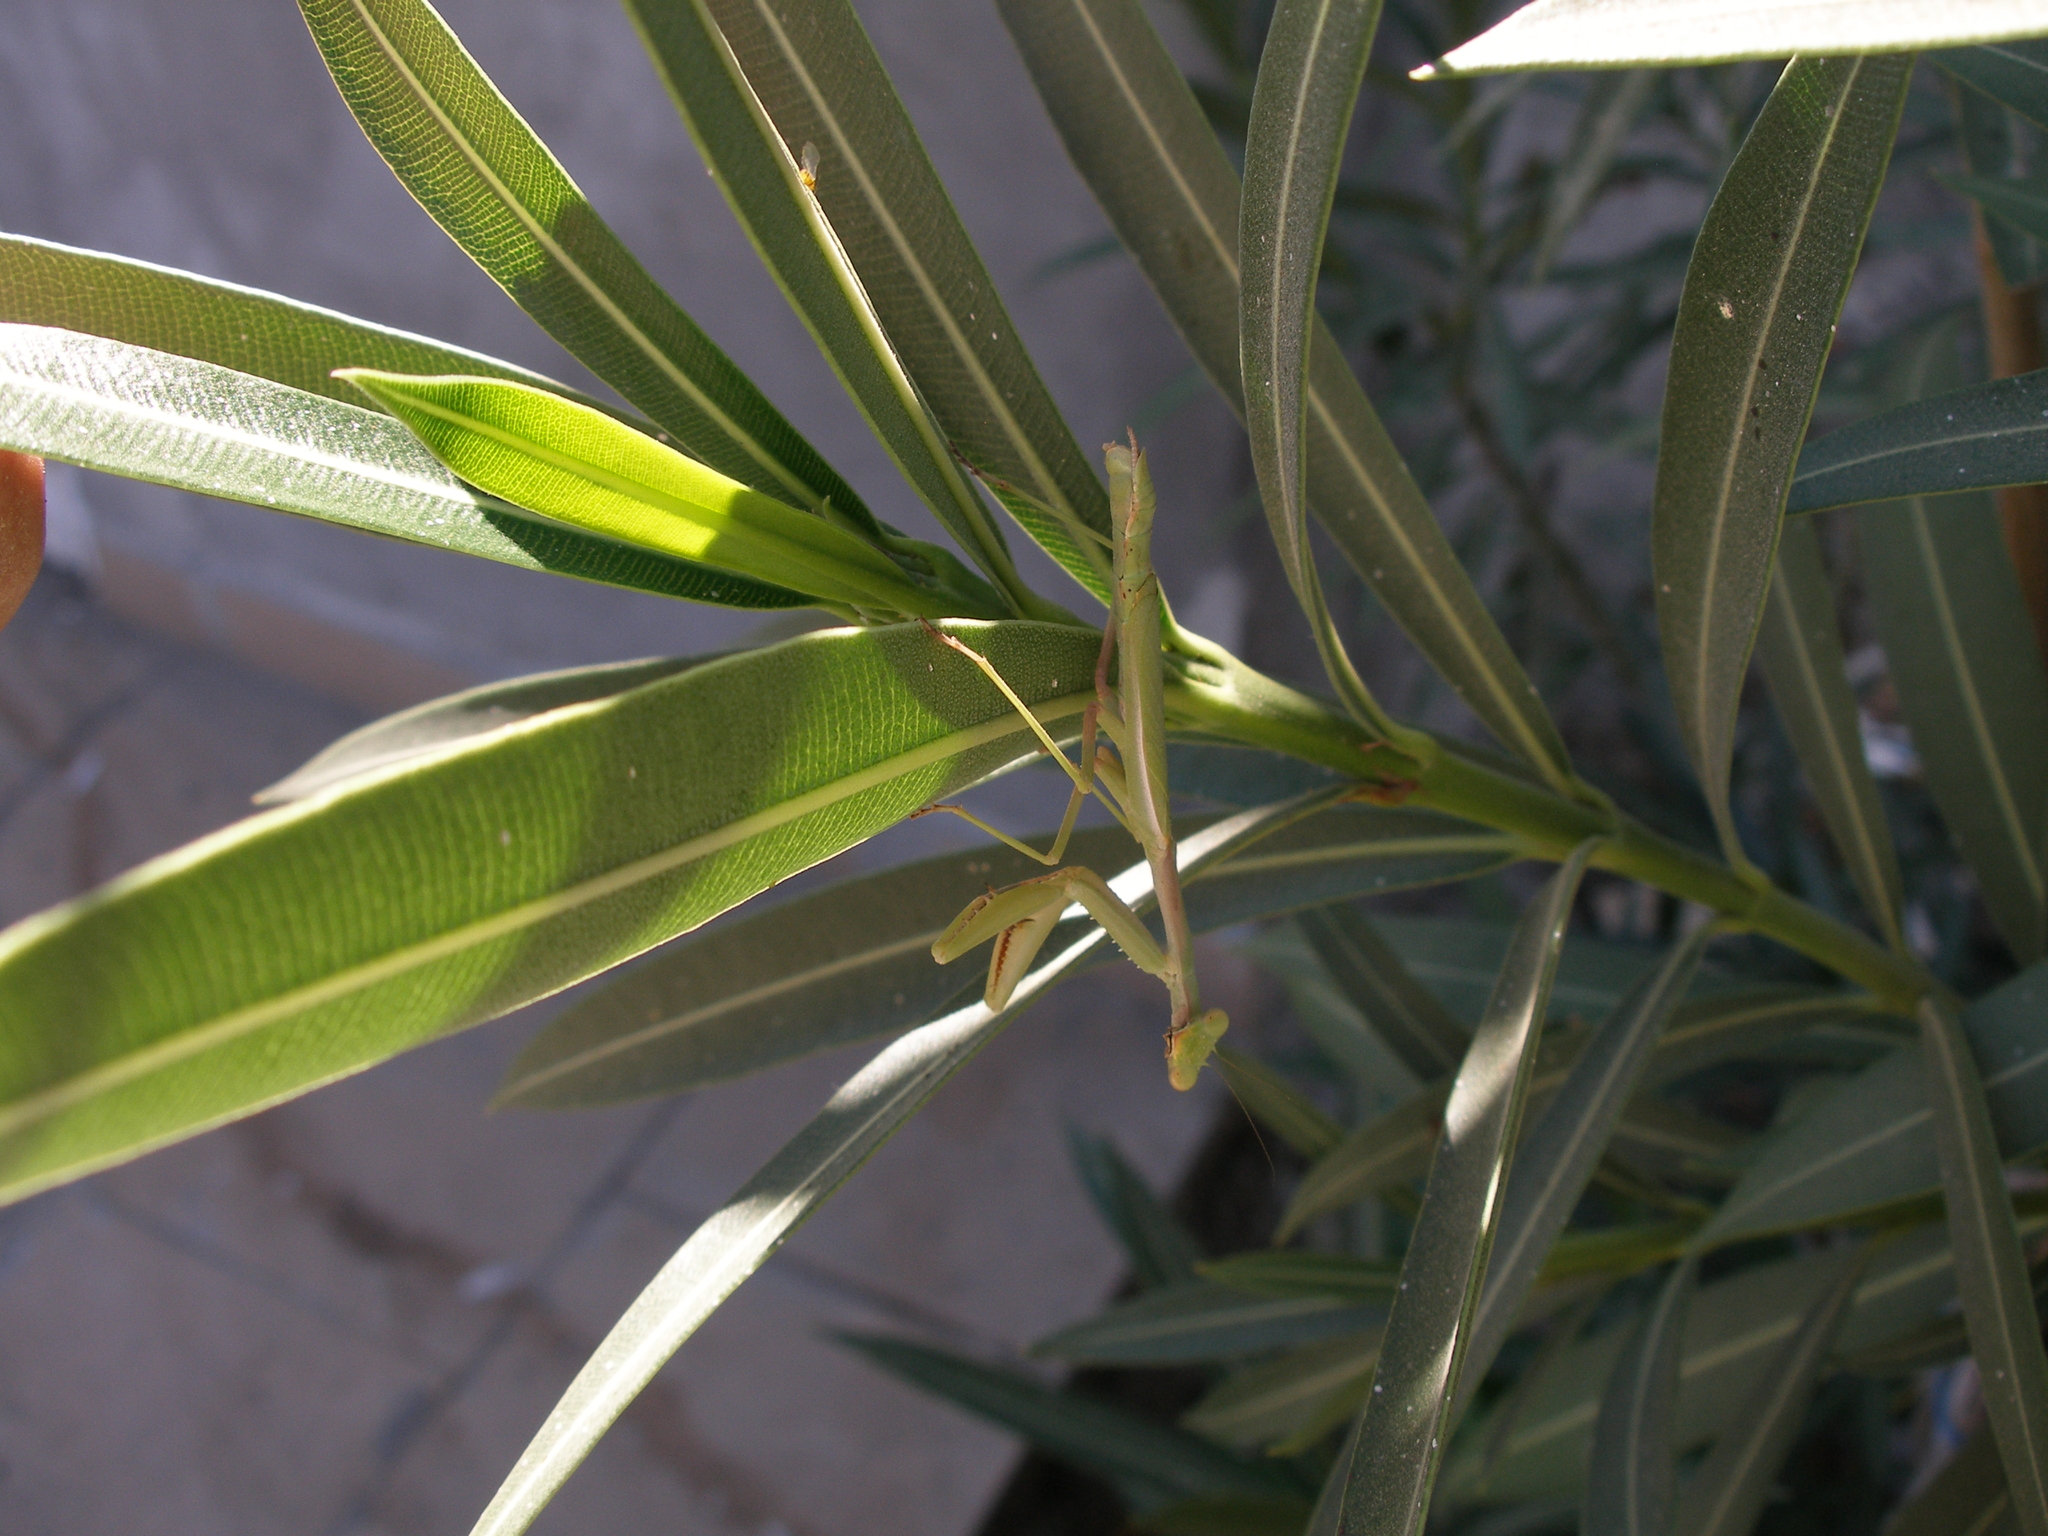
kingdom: Animalia
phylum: Arthropoda
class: Insecta
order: Mantodea
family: Eremiaphilidae
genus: Iris
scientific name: Iris polystictica
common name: Dot-winged mantis
